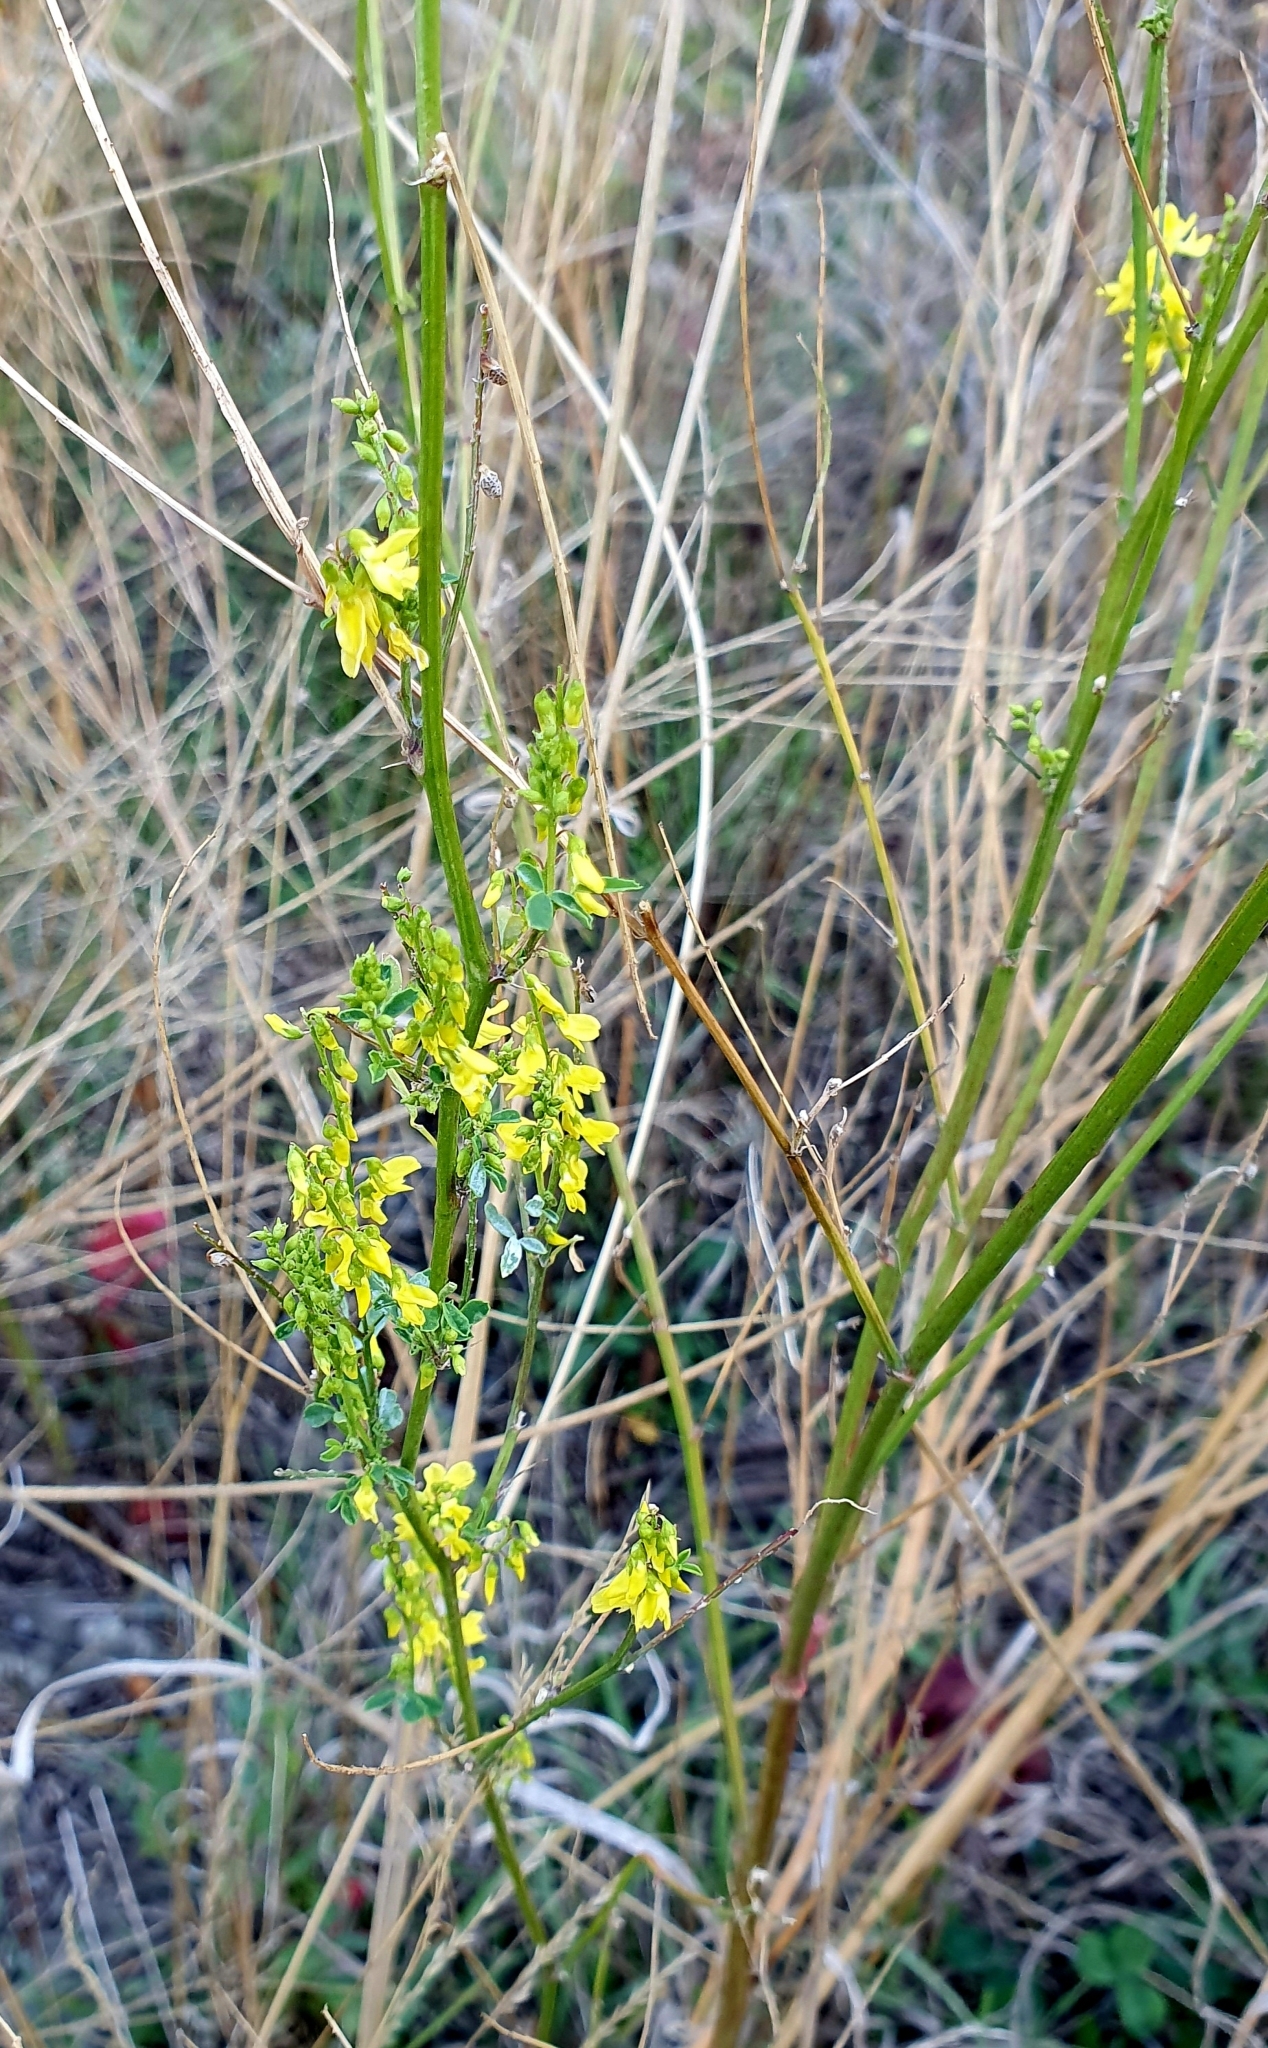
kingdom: Plantae
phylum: Tracheophyta
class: Magnoliopsida
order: Fabales
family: Fabaceae
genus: Melilotus
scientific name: Melilotus officinalis
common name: Sweetclover
